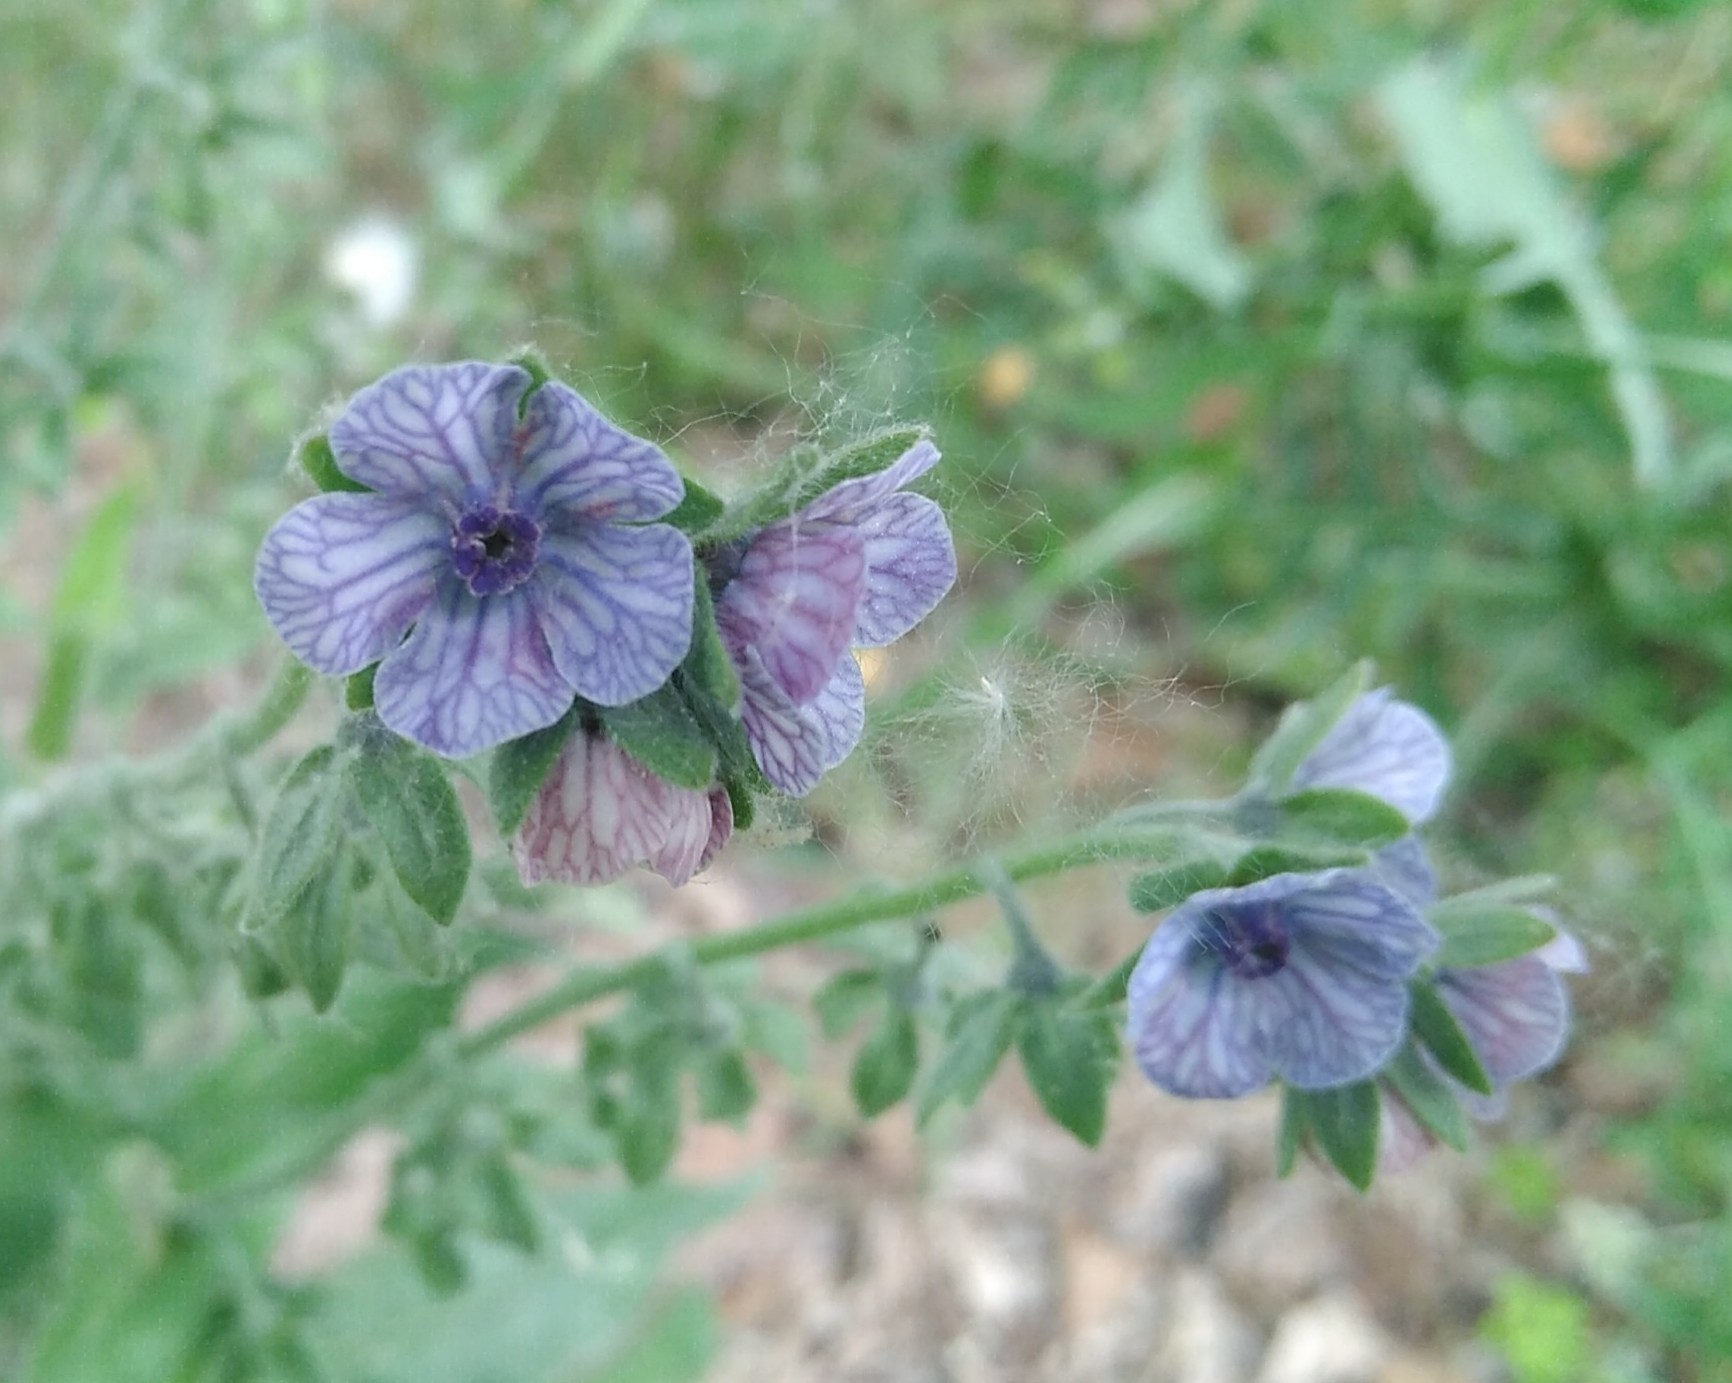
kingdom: Plantae
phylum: Tracheophyta
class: Magnoliopsida
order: Boraginales
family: Boraginaceae
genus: Cynoglossum
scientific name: Cynoglossum creticum
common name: Blue hound's tongue
